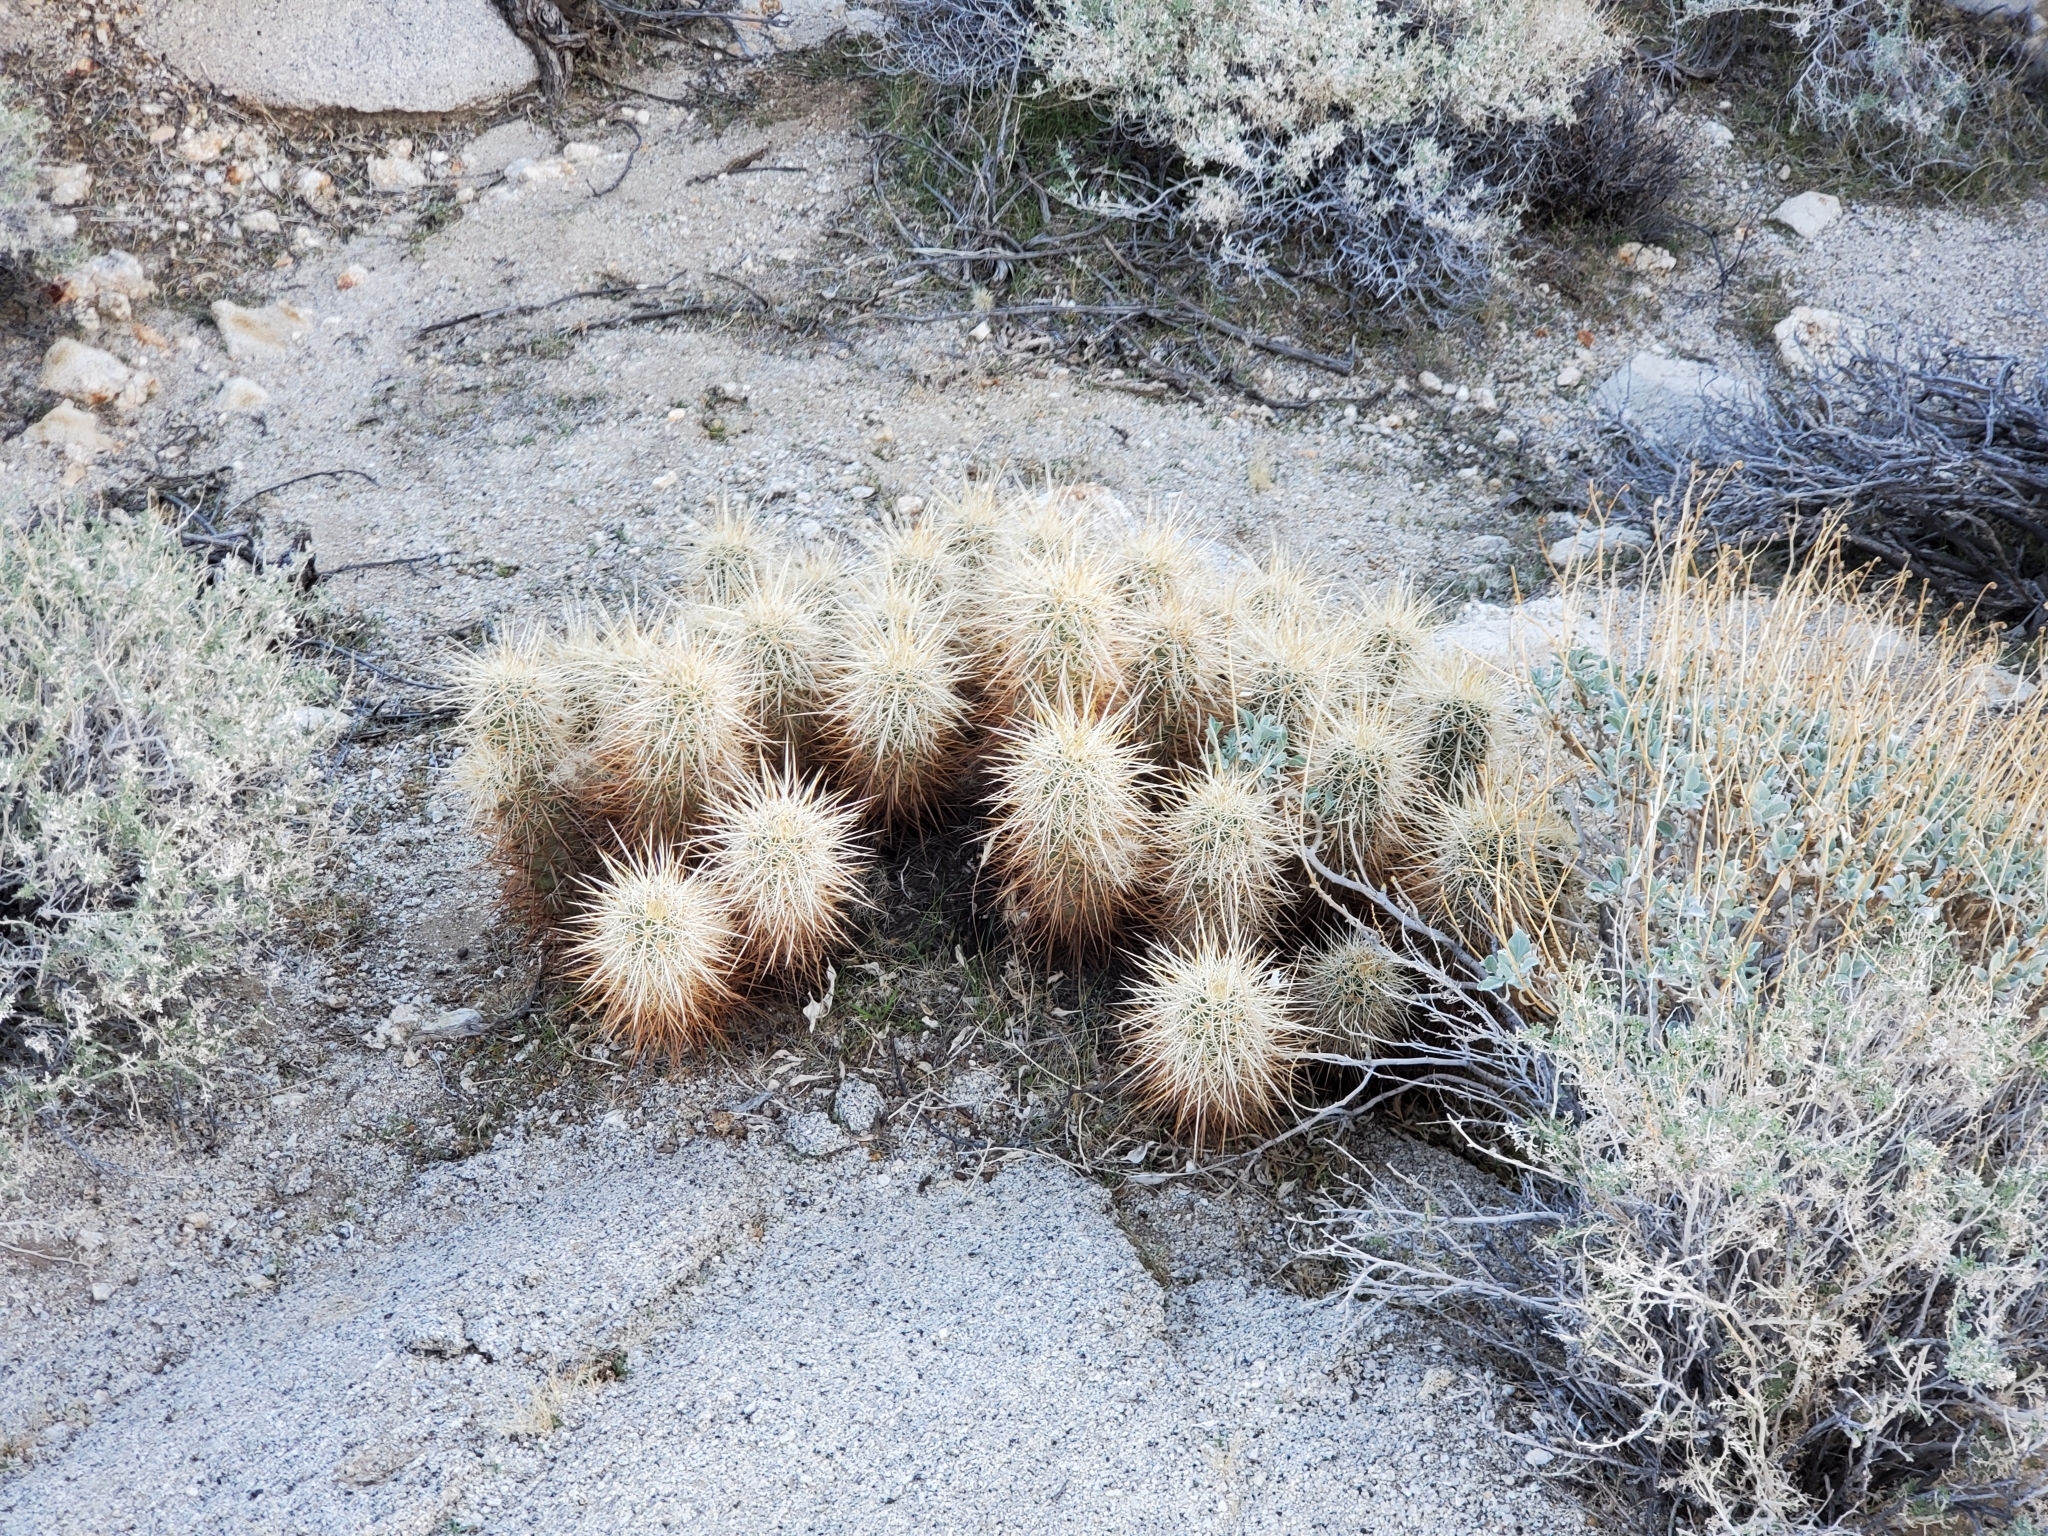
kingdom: Plantae
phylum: Tracheophyta
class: Magnoliopsida
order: Caryophyllales
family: Cactaceae
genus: Echinocereus
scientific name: Echinocereus engelmannii
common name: Engelmann's hedgehog cactus
